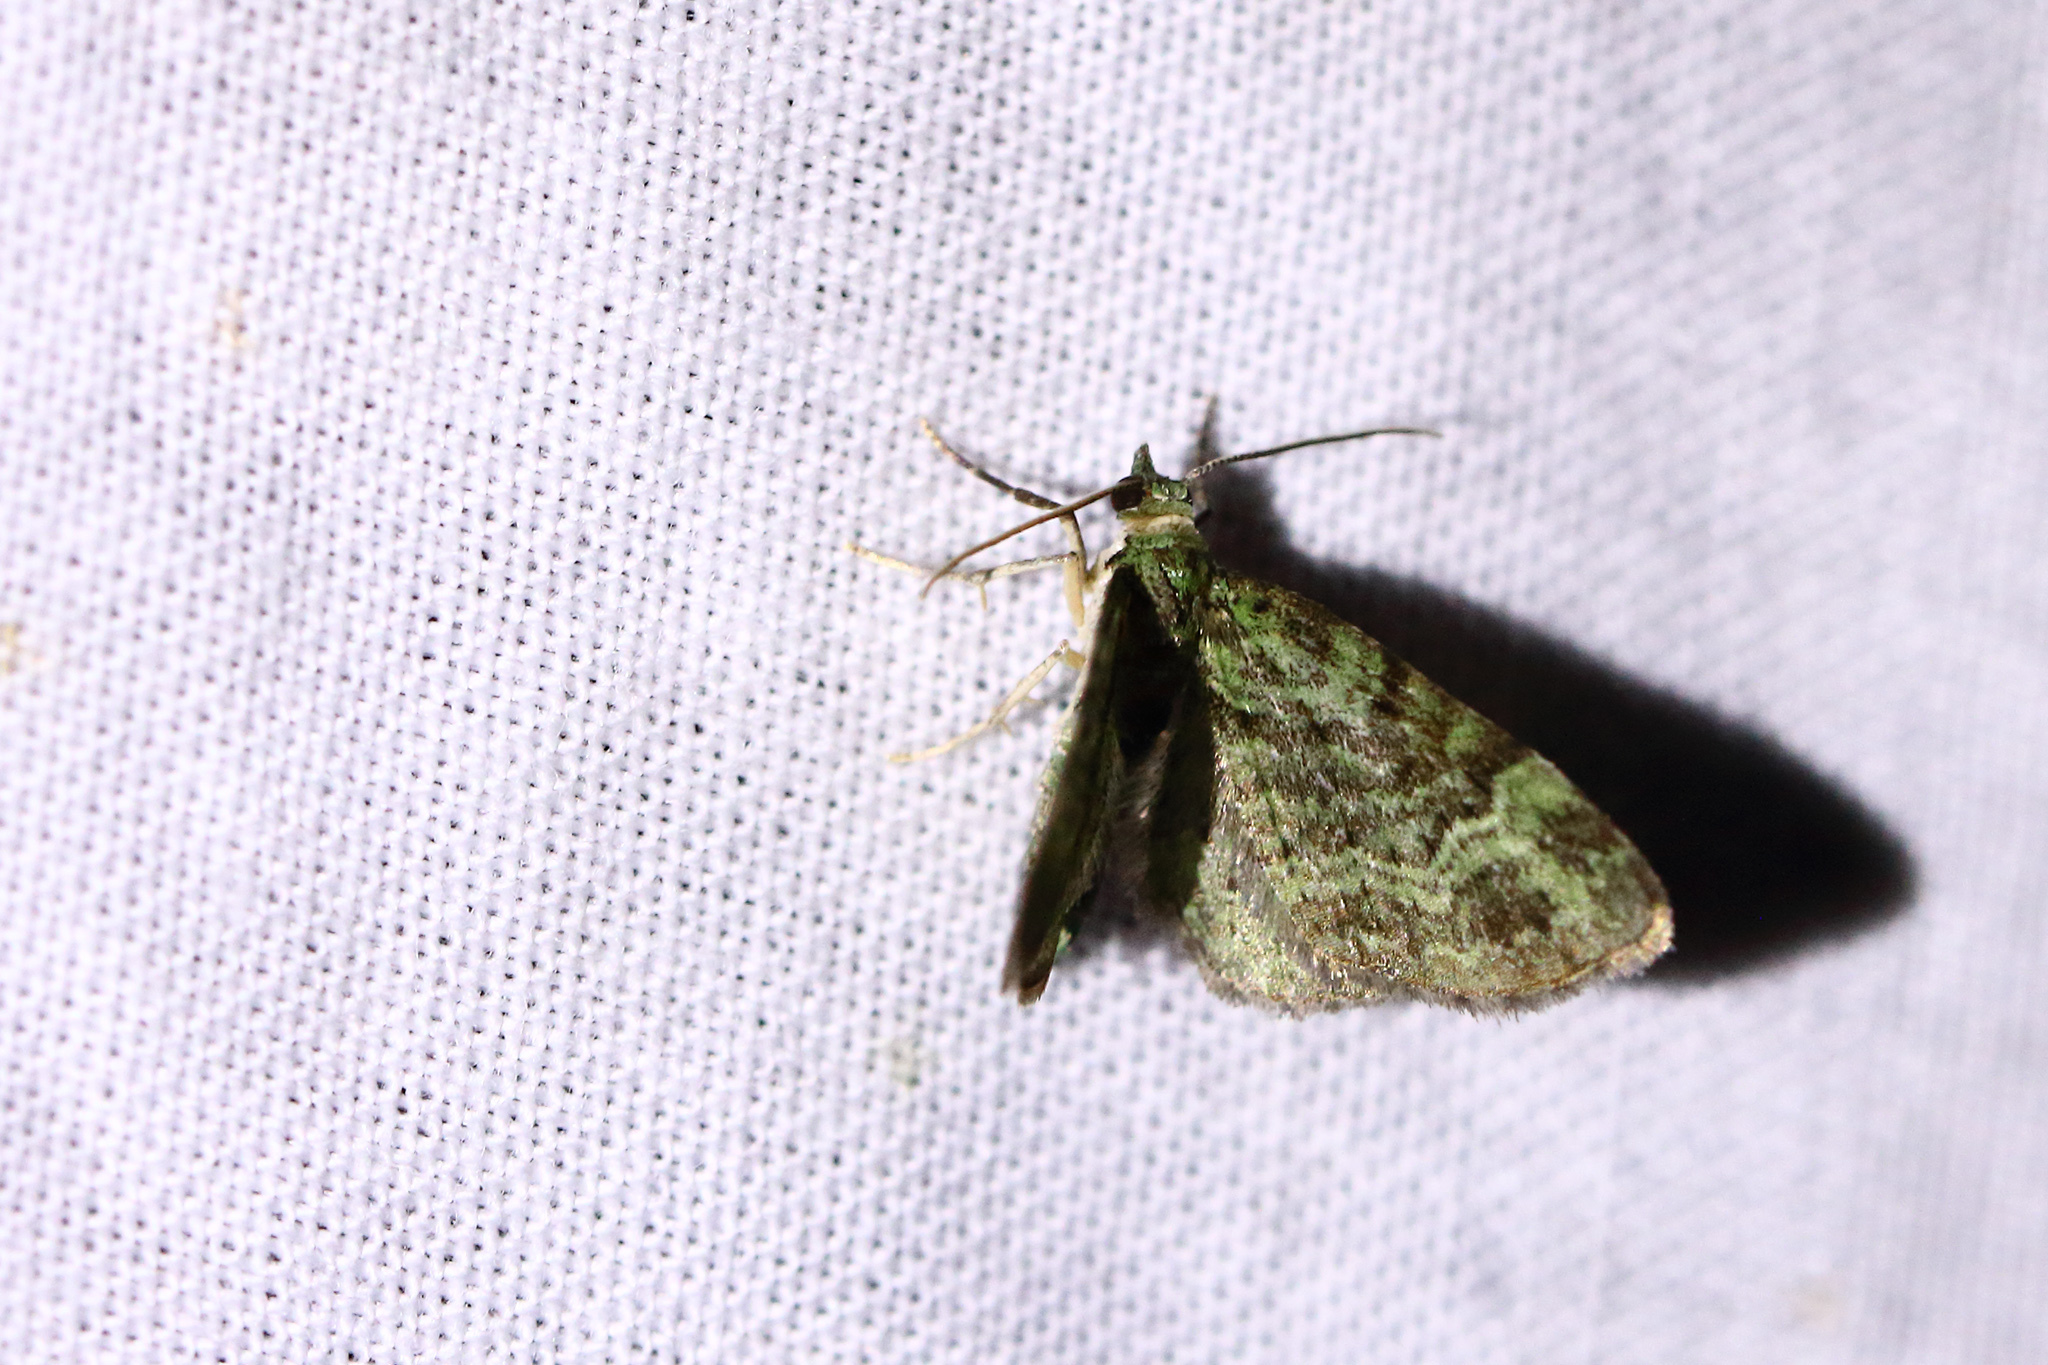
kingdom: Animalia
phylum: Arthropoda
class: Insecta
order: Lepidoptera
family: Geometridae
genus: Pasiphila
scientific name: Pasiphila rectangulata
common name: Green pug
